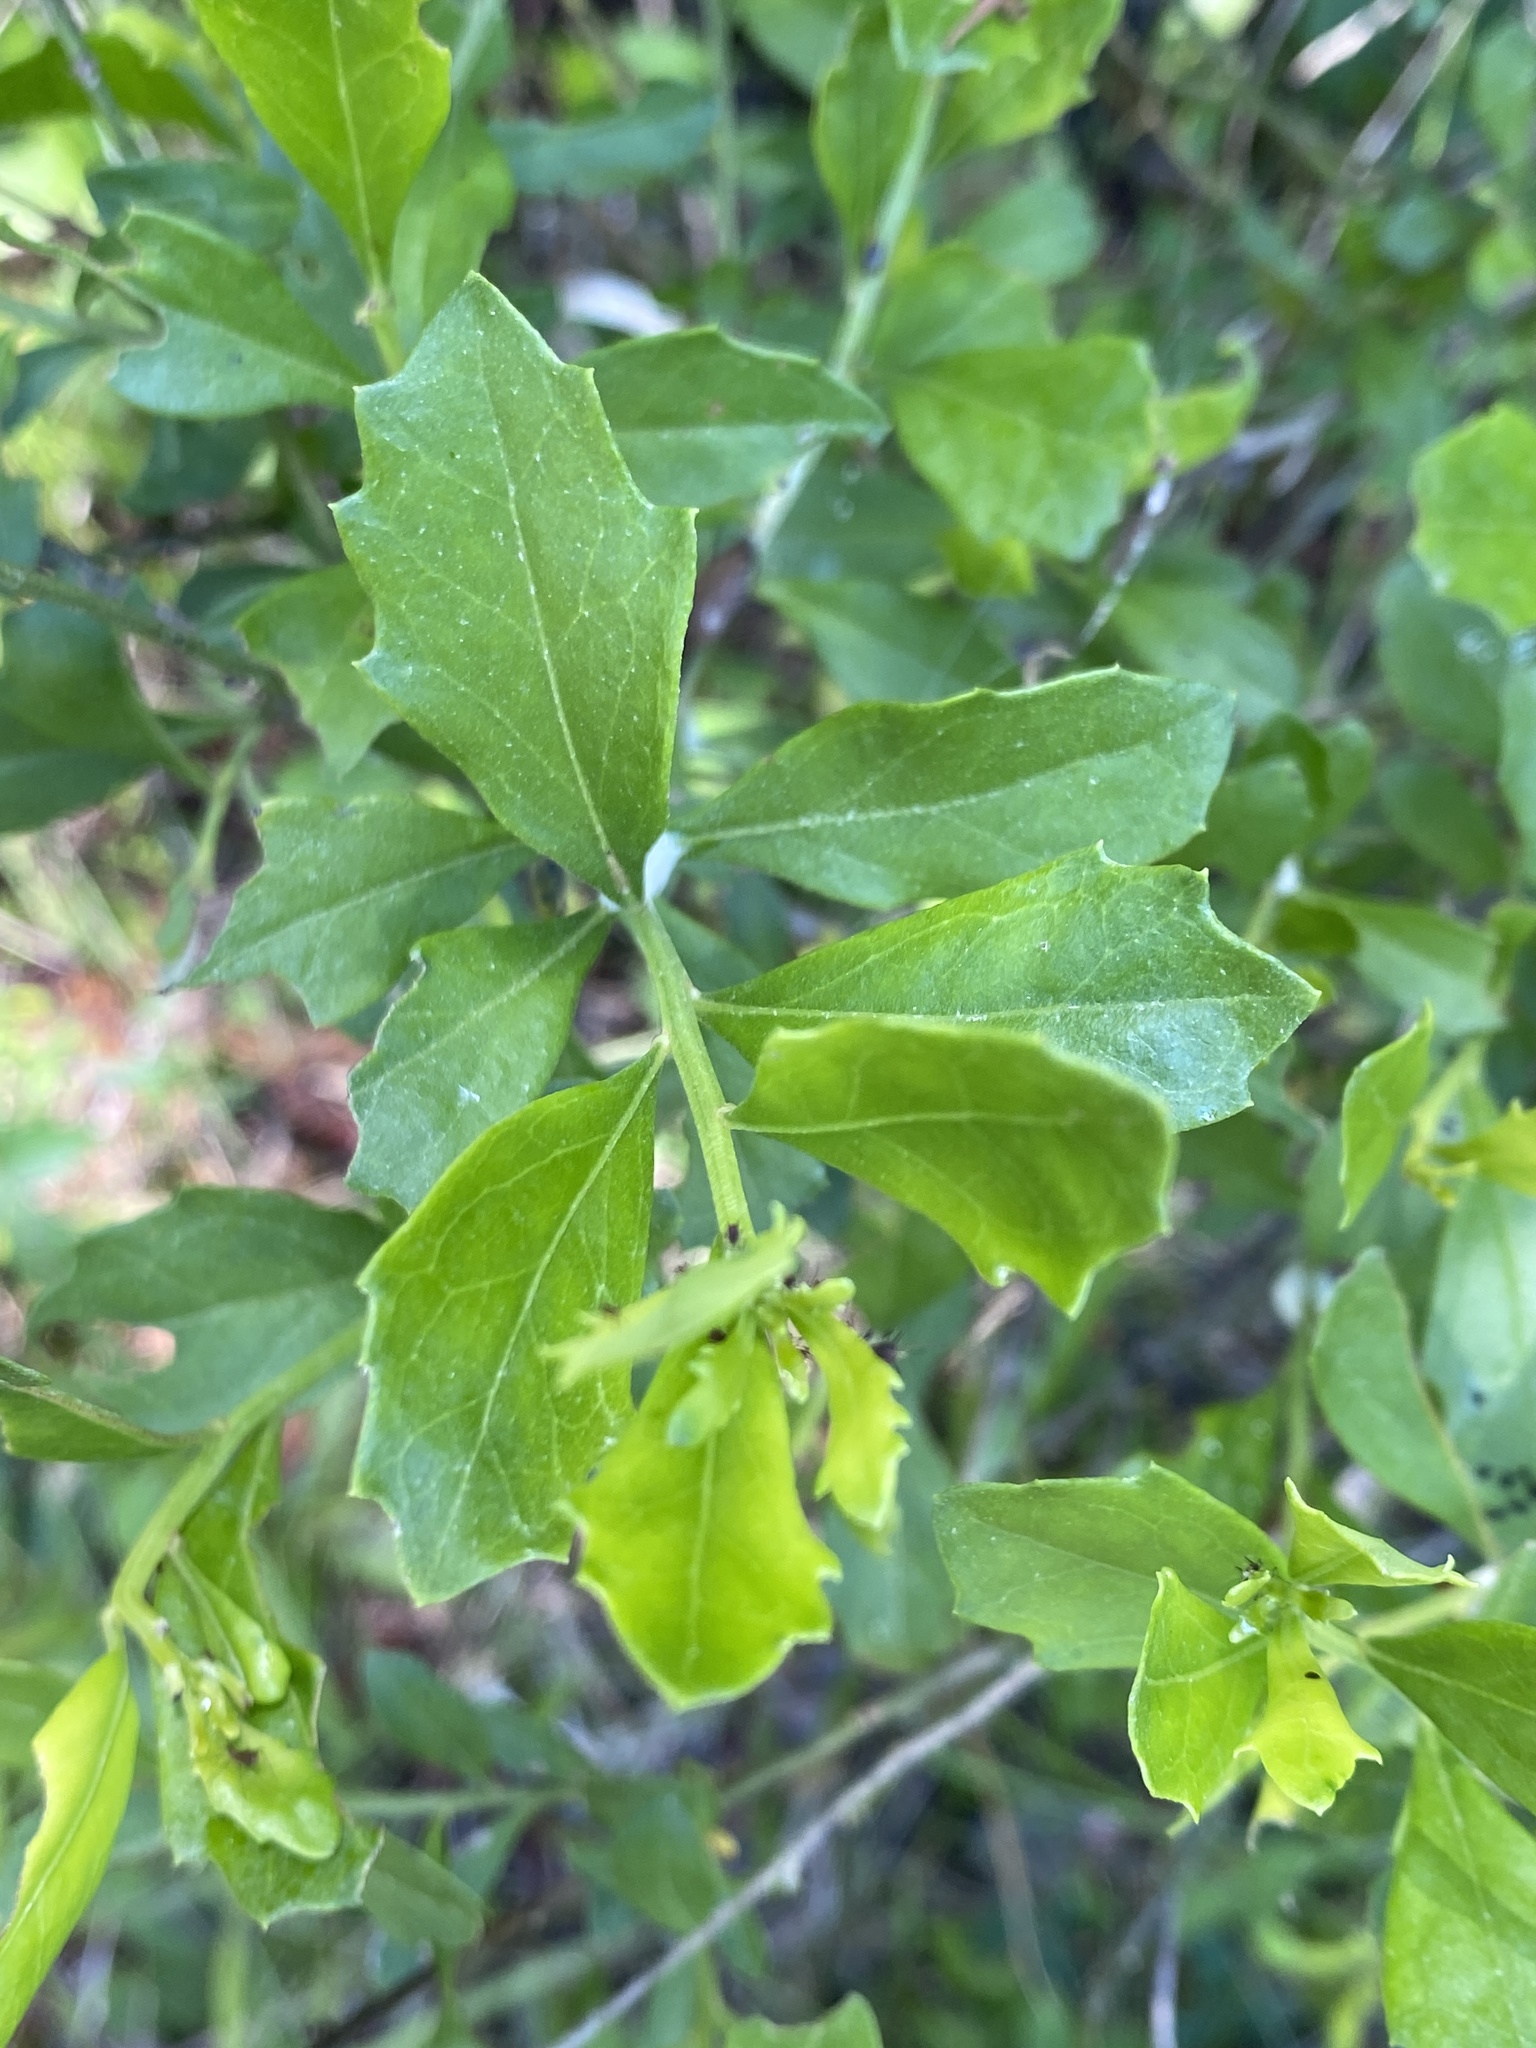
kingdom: Plantae
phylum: Tracheophyta
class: Magnoliopsida
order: Asterales
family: Asteraceae
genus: Baccharis
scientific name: Baccharis halimifolia
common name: Eastern baccharis
